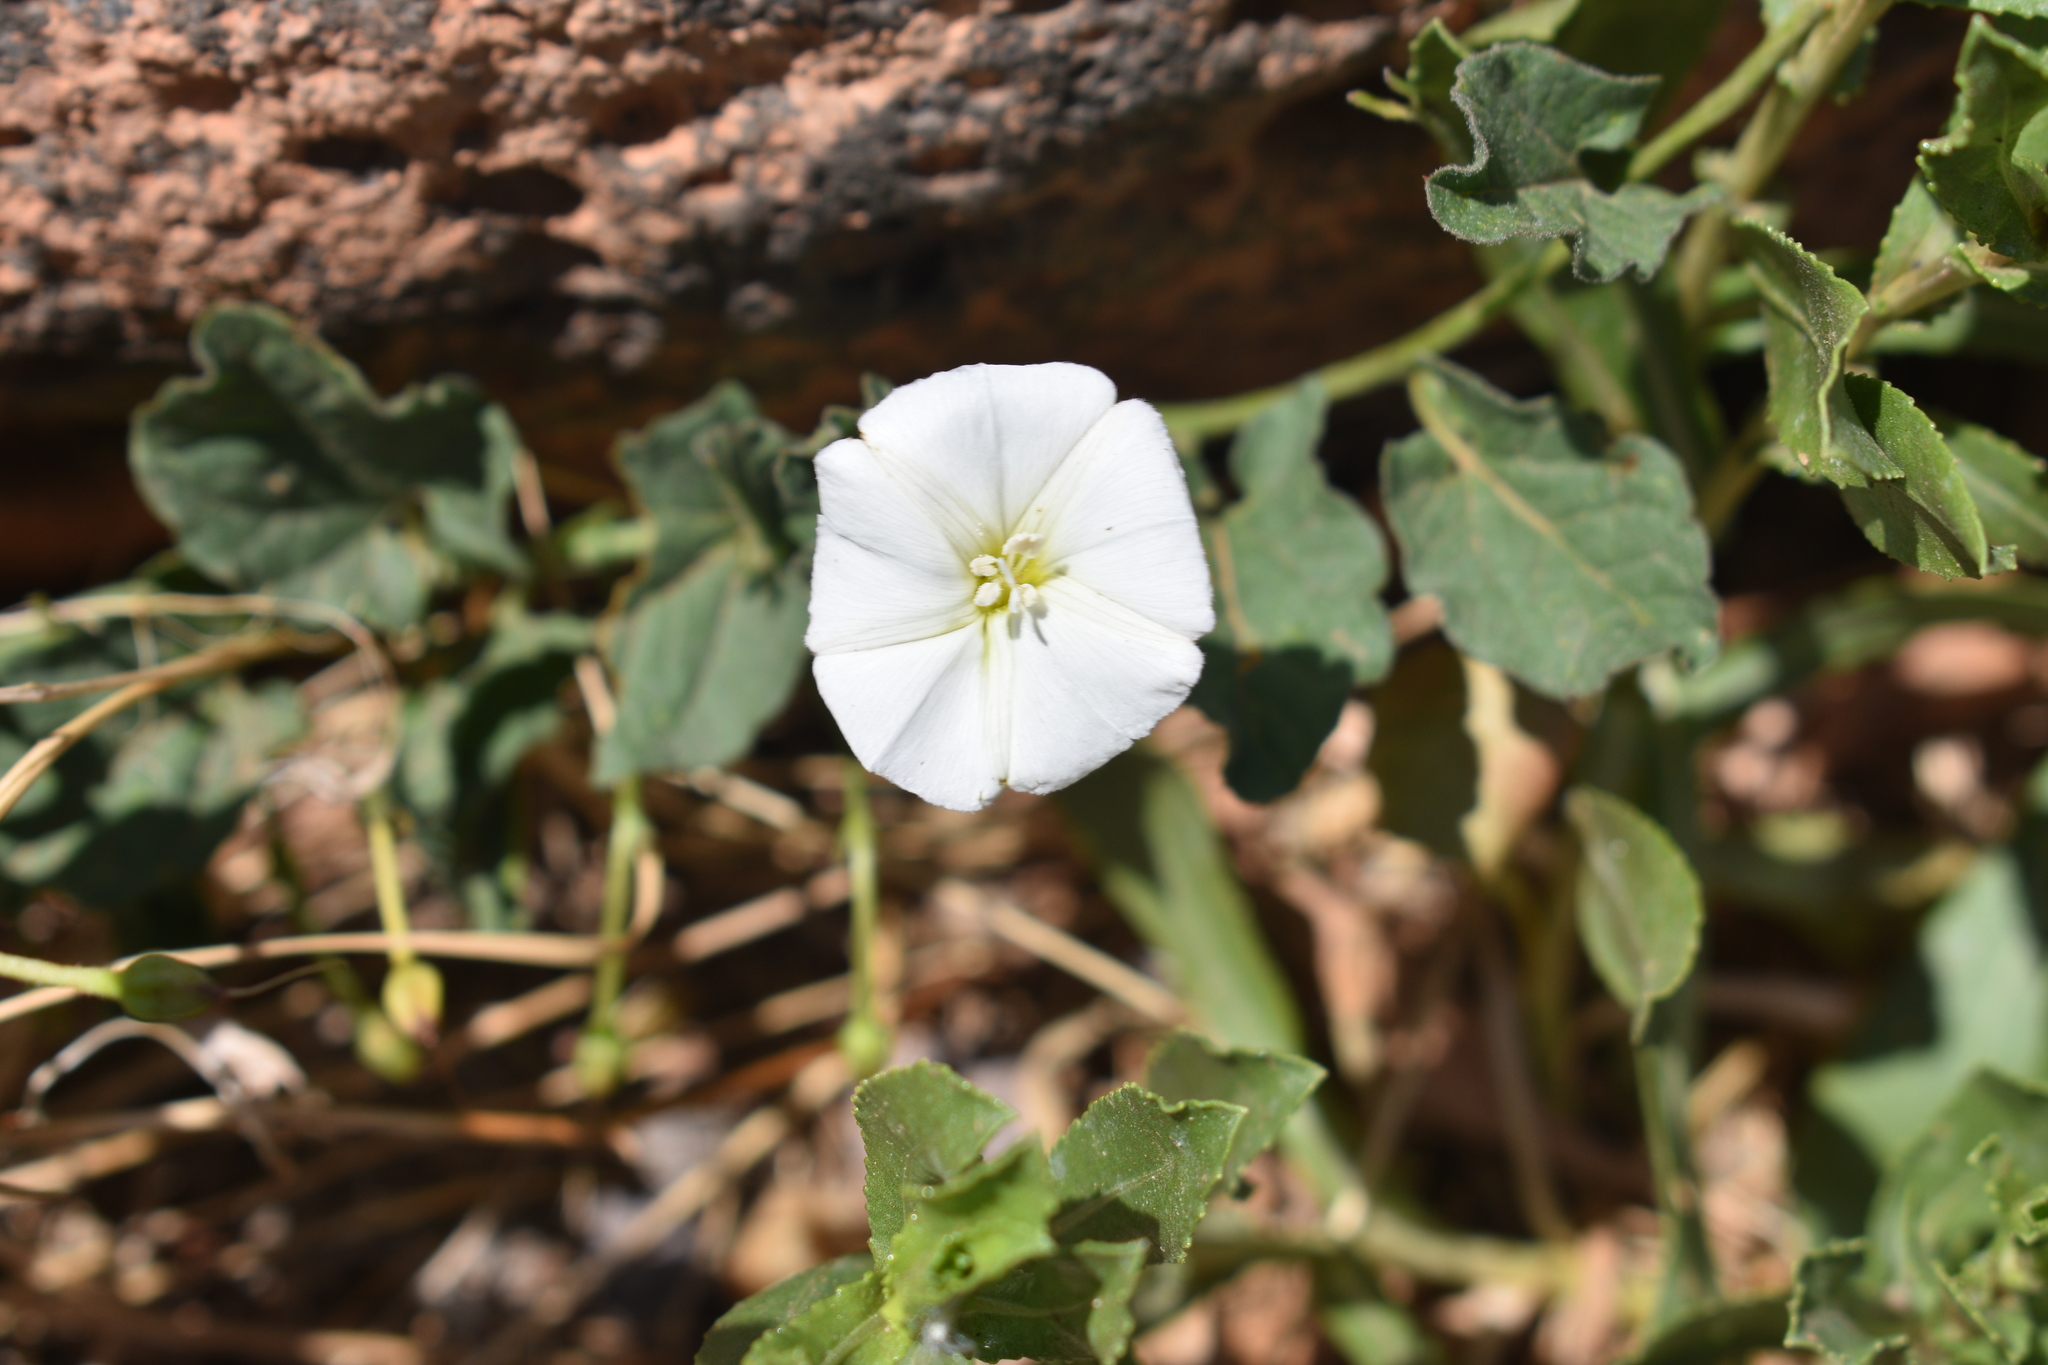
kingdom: Plantae
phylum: Tracheophyta
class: Magnoliopsida
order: Solanales
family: Convolvulaceae
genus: Convolvulus
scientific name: Convolvulus arvensis
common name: Field bindweed
